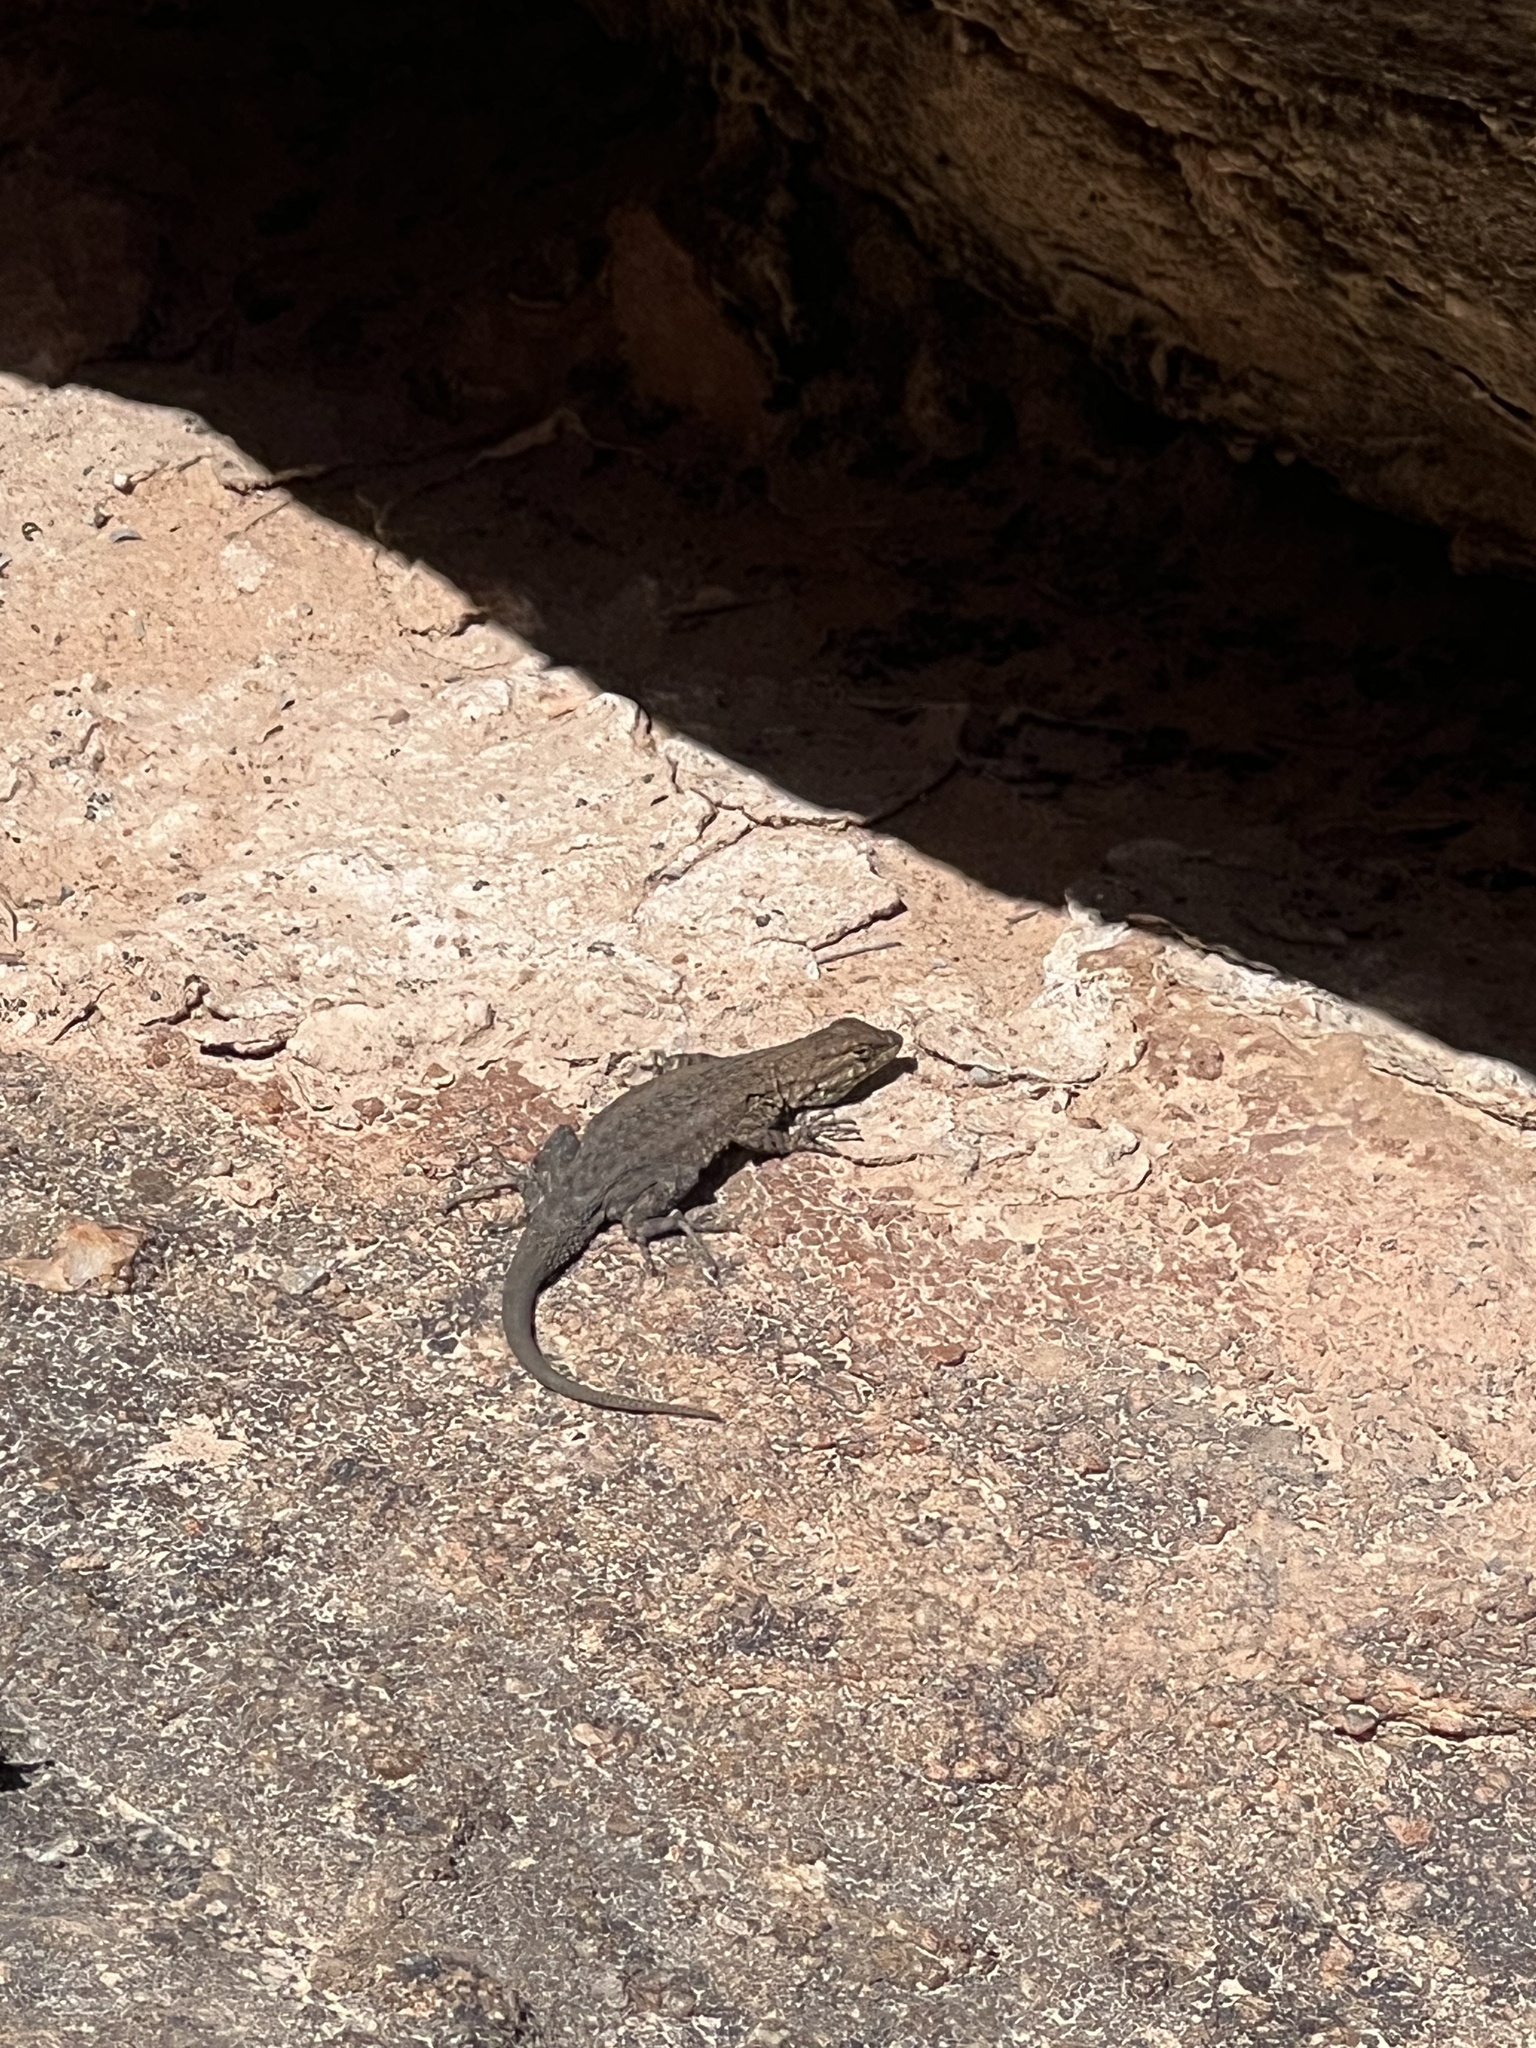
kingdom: Animalia
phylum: Chordata
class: Squamata
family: Phrynosomatidae
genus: Uta
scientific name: Uta stansburiana
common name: Side-blotched lizard
